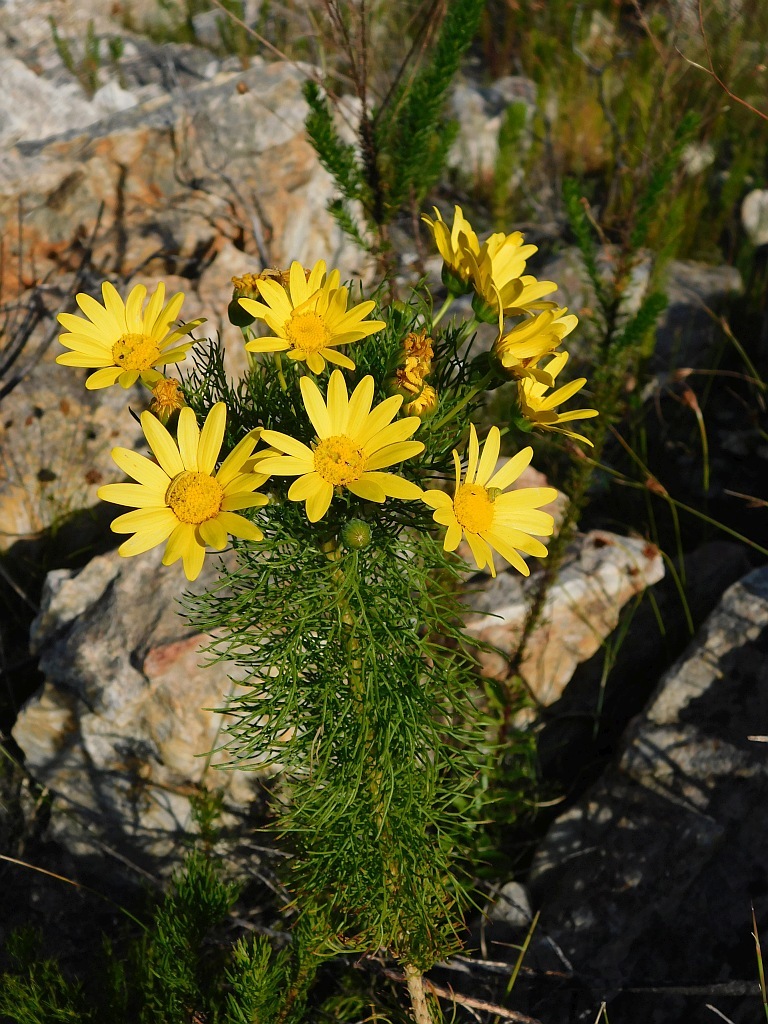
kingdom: Plantae
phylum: Tracheophyta
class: Magnoliopsida
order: Asterales
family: Asteraceae
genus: Euryops
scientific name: Euryops abrotanifolius
